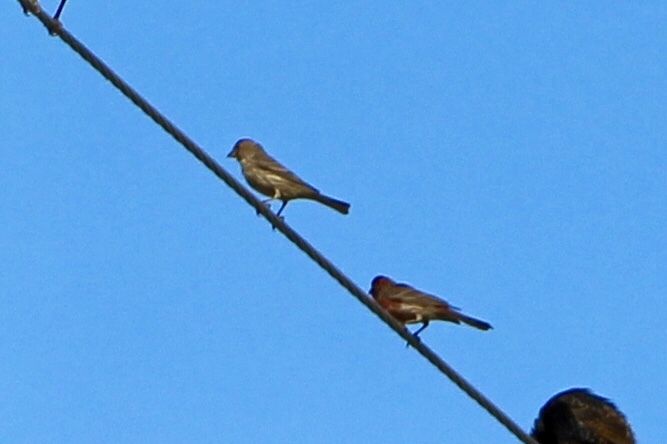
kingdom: Animalia
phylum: Chordata
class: Aves
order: Passeriformes
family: Fringillidae
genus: Haemorhous
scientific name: Haemorhous mexicanus
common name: House finch
